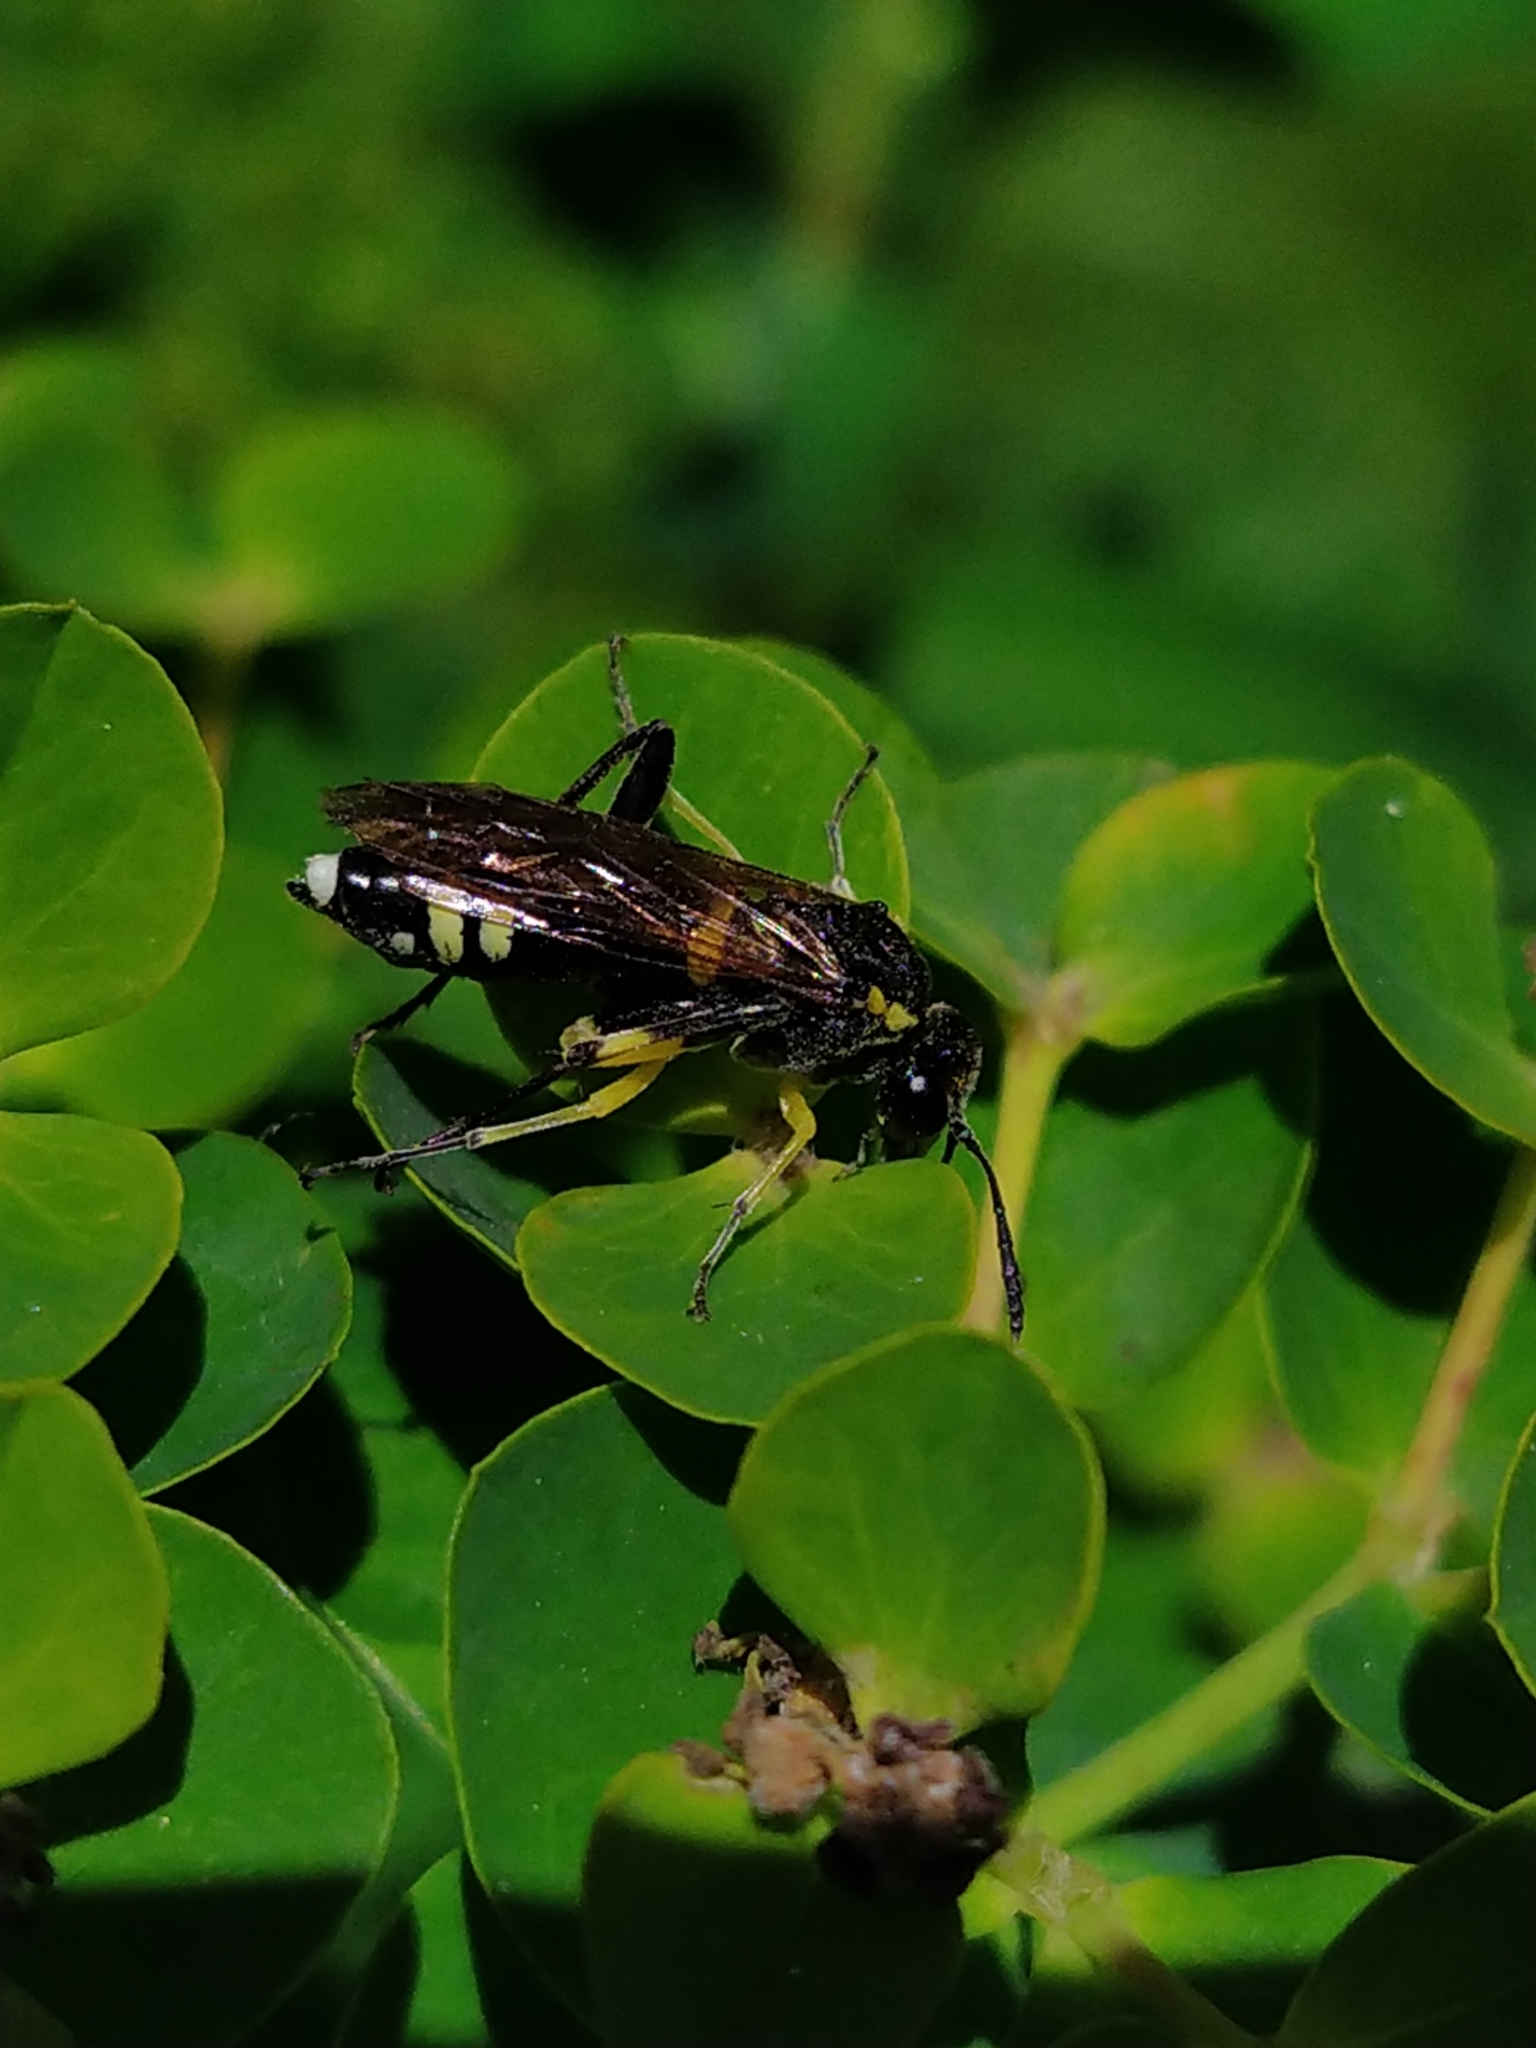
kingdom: Animalia
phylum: Arthropoda
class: Insecta
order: Hymenoptera
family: Tenthredinidae
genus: Macrophya
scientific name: Macrophya montana
